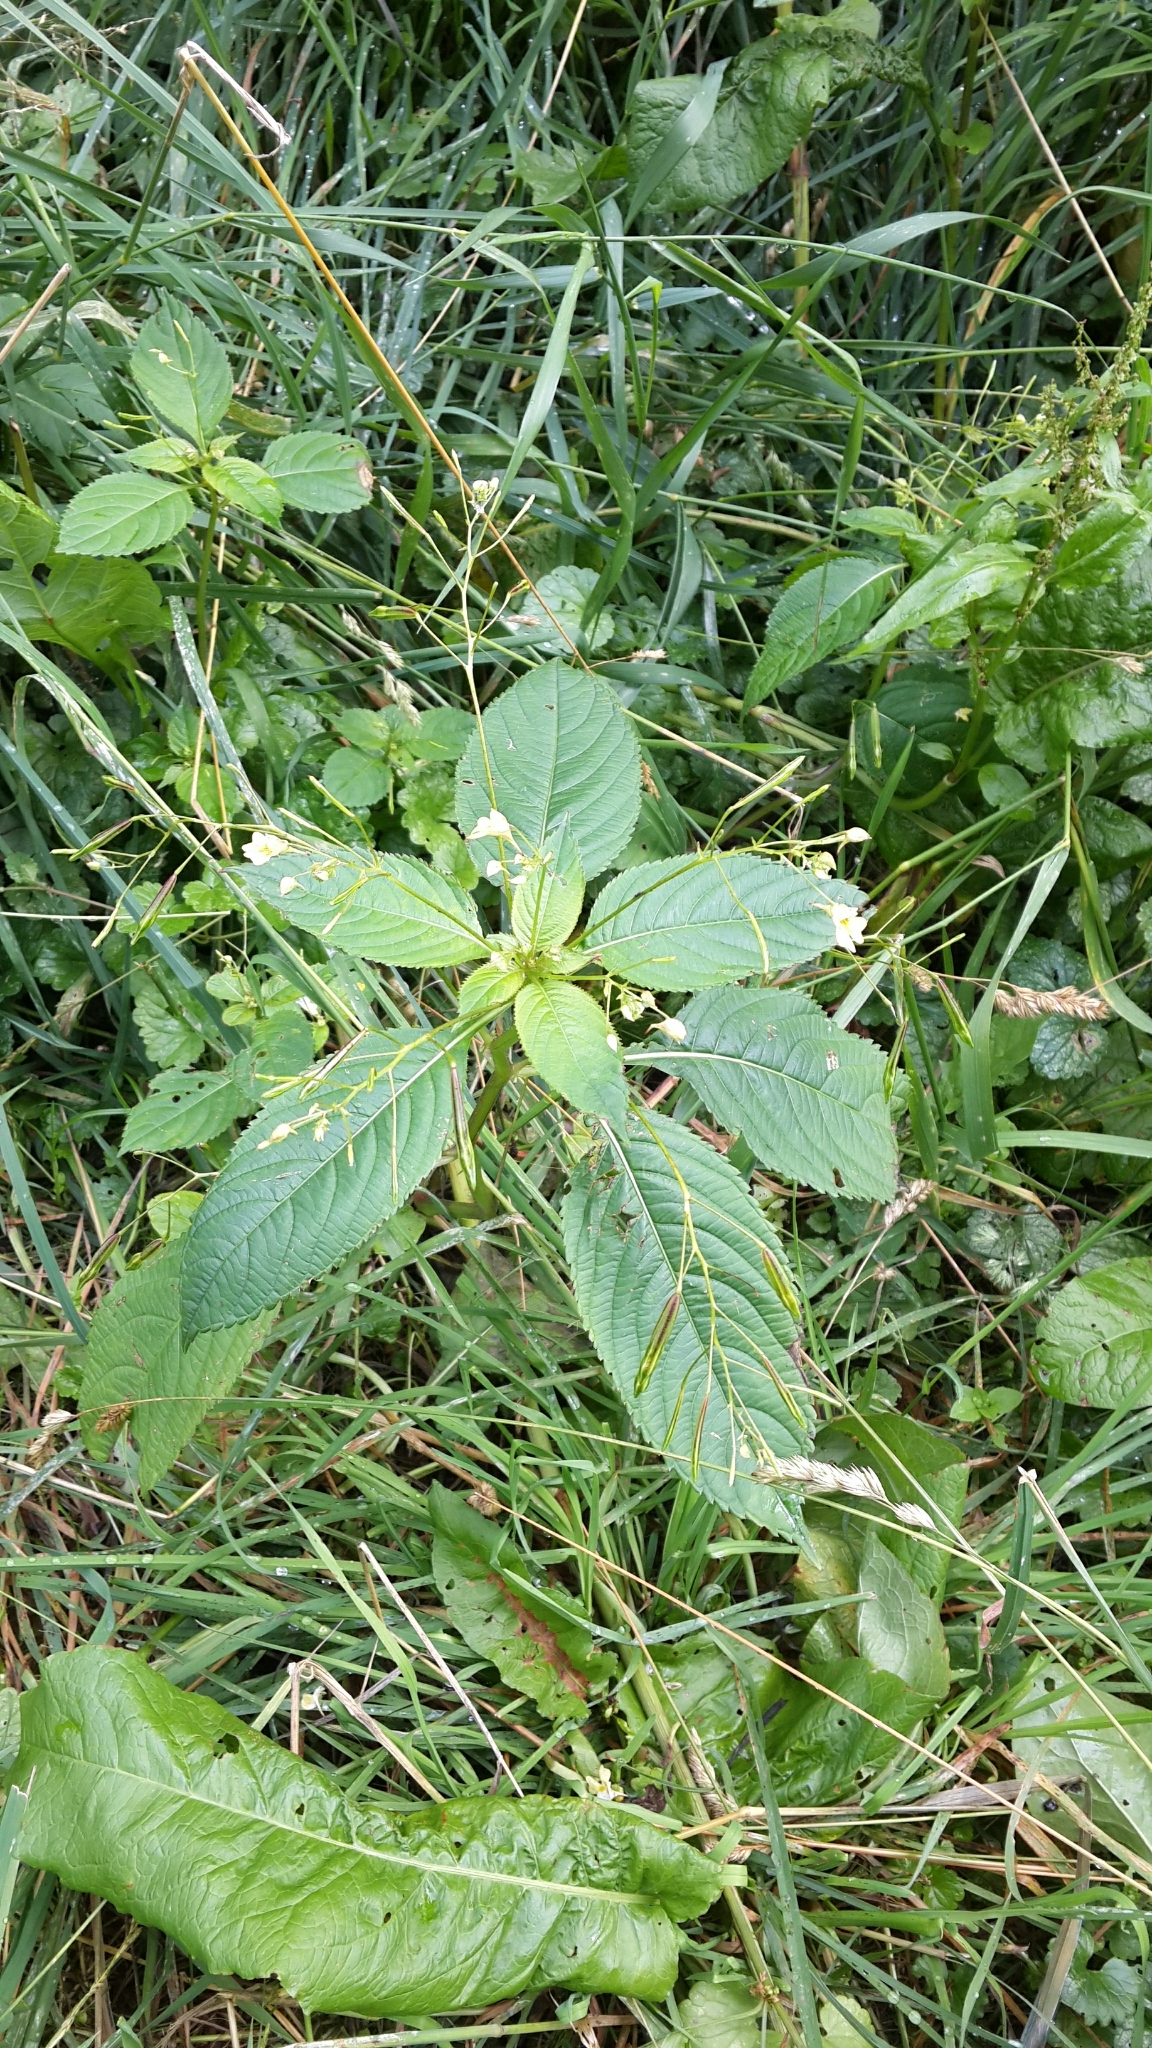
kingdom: Plantae
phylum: Tracheophyta
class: Magnoliopsida
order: Ericales
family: Balsaminaceae
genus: Impatiens
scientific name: Impatiens parviflora
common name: Small balsam
